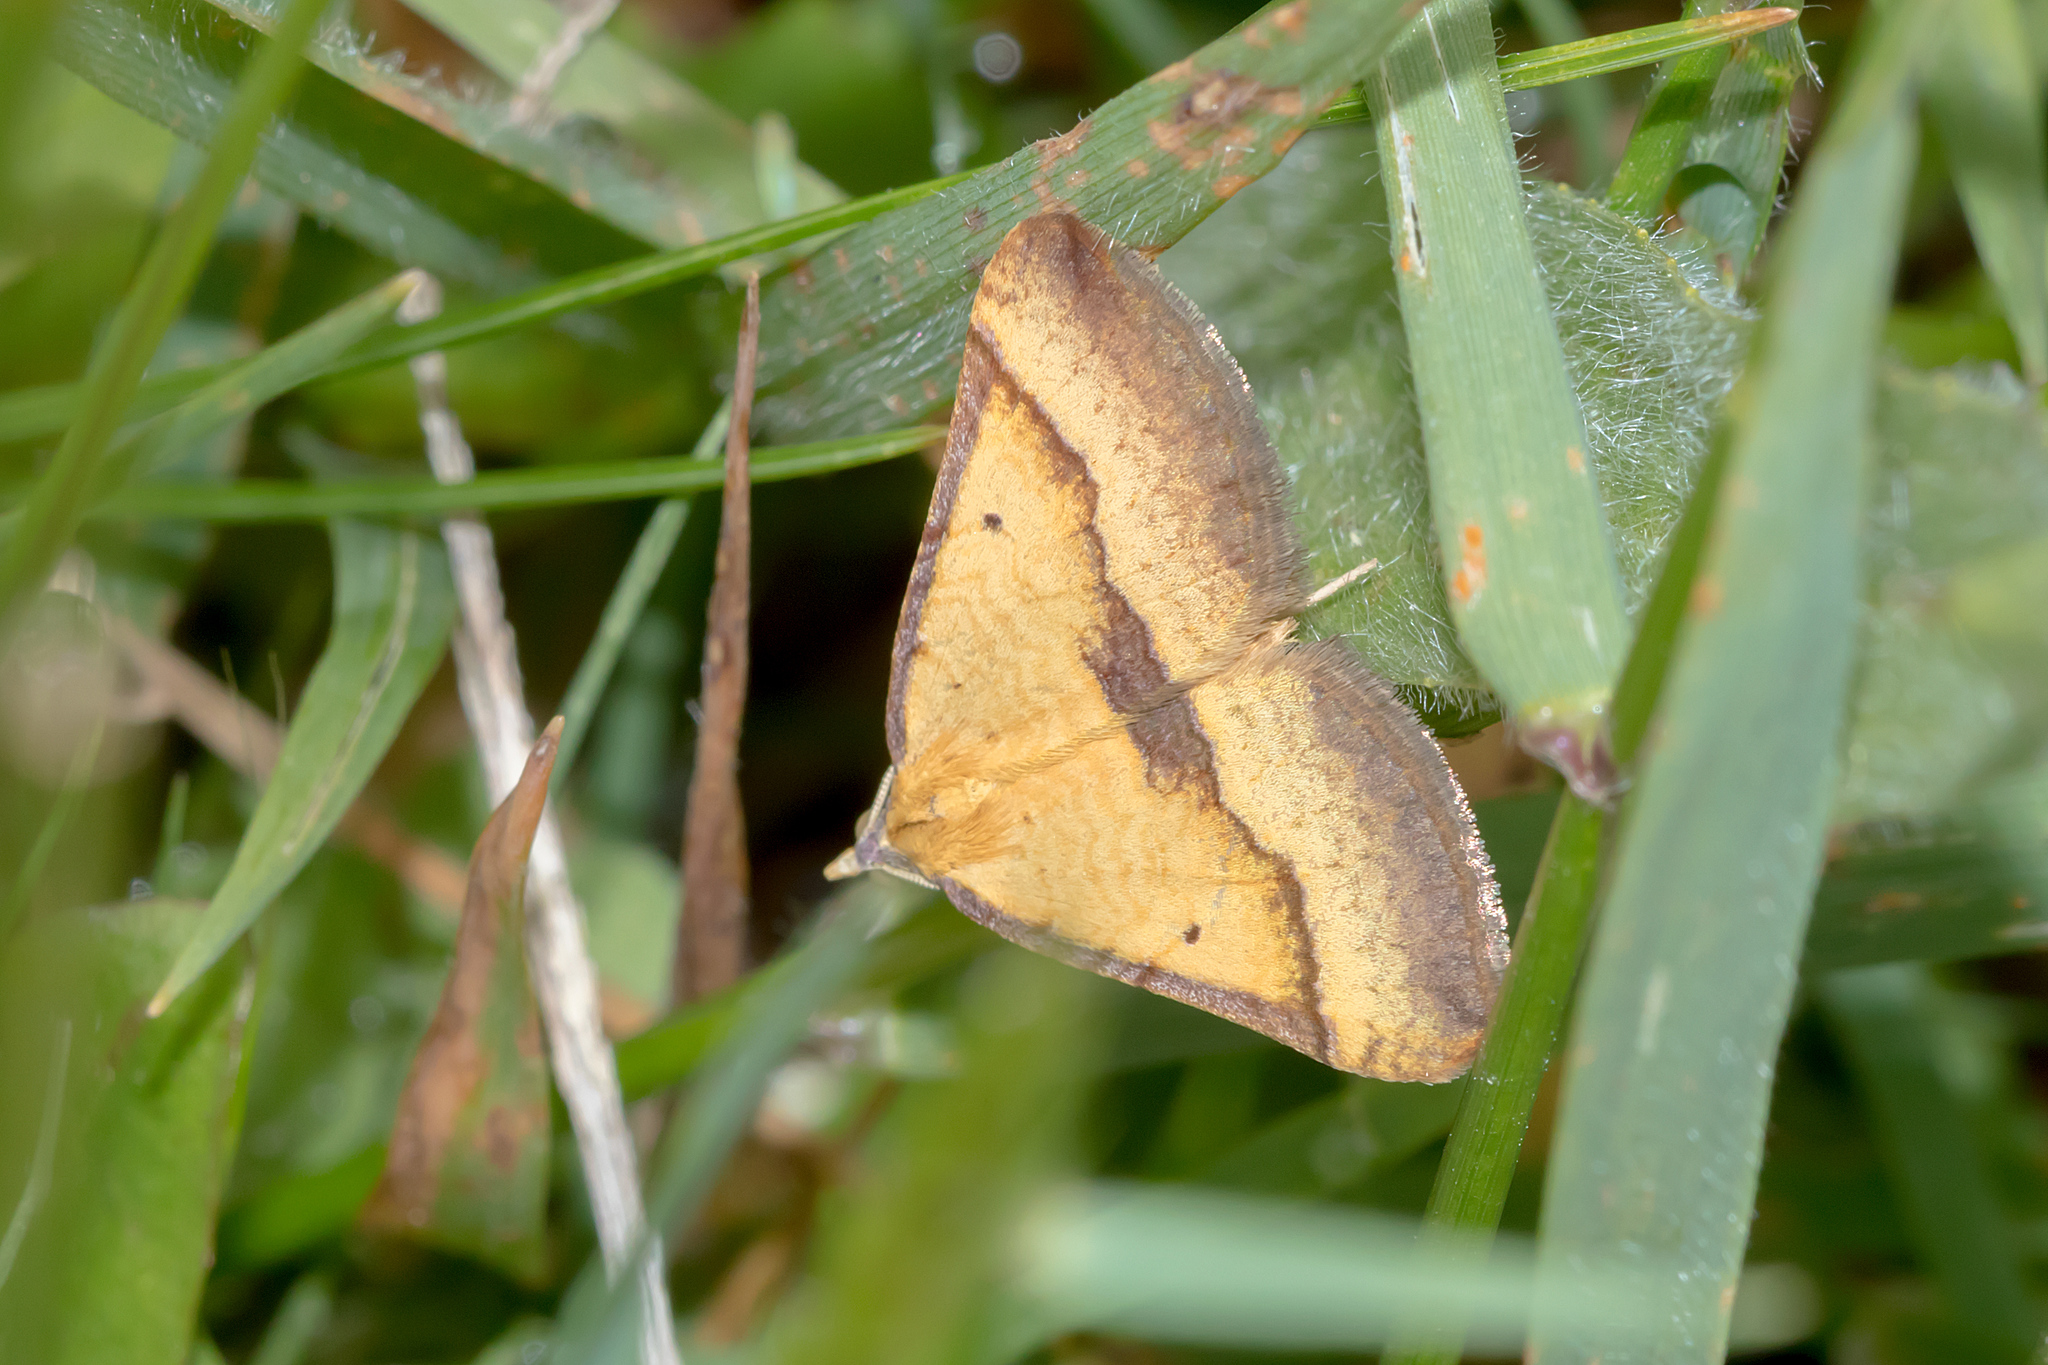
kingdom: Animalia
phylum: Arthropoda
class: Insecta
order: Lepidoptera
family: Geometridae
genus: Anachloris
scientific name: Anachloris subochraria
